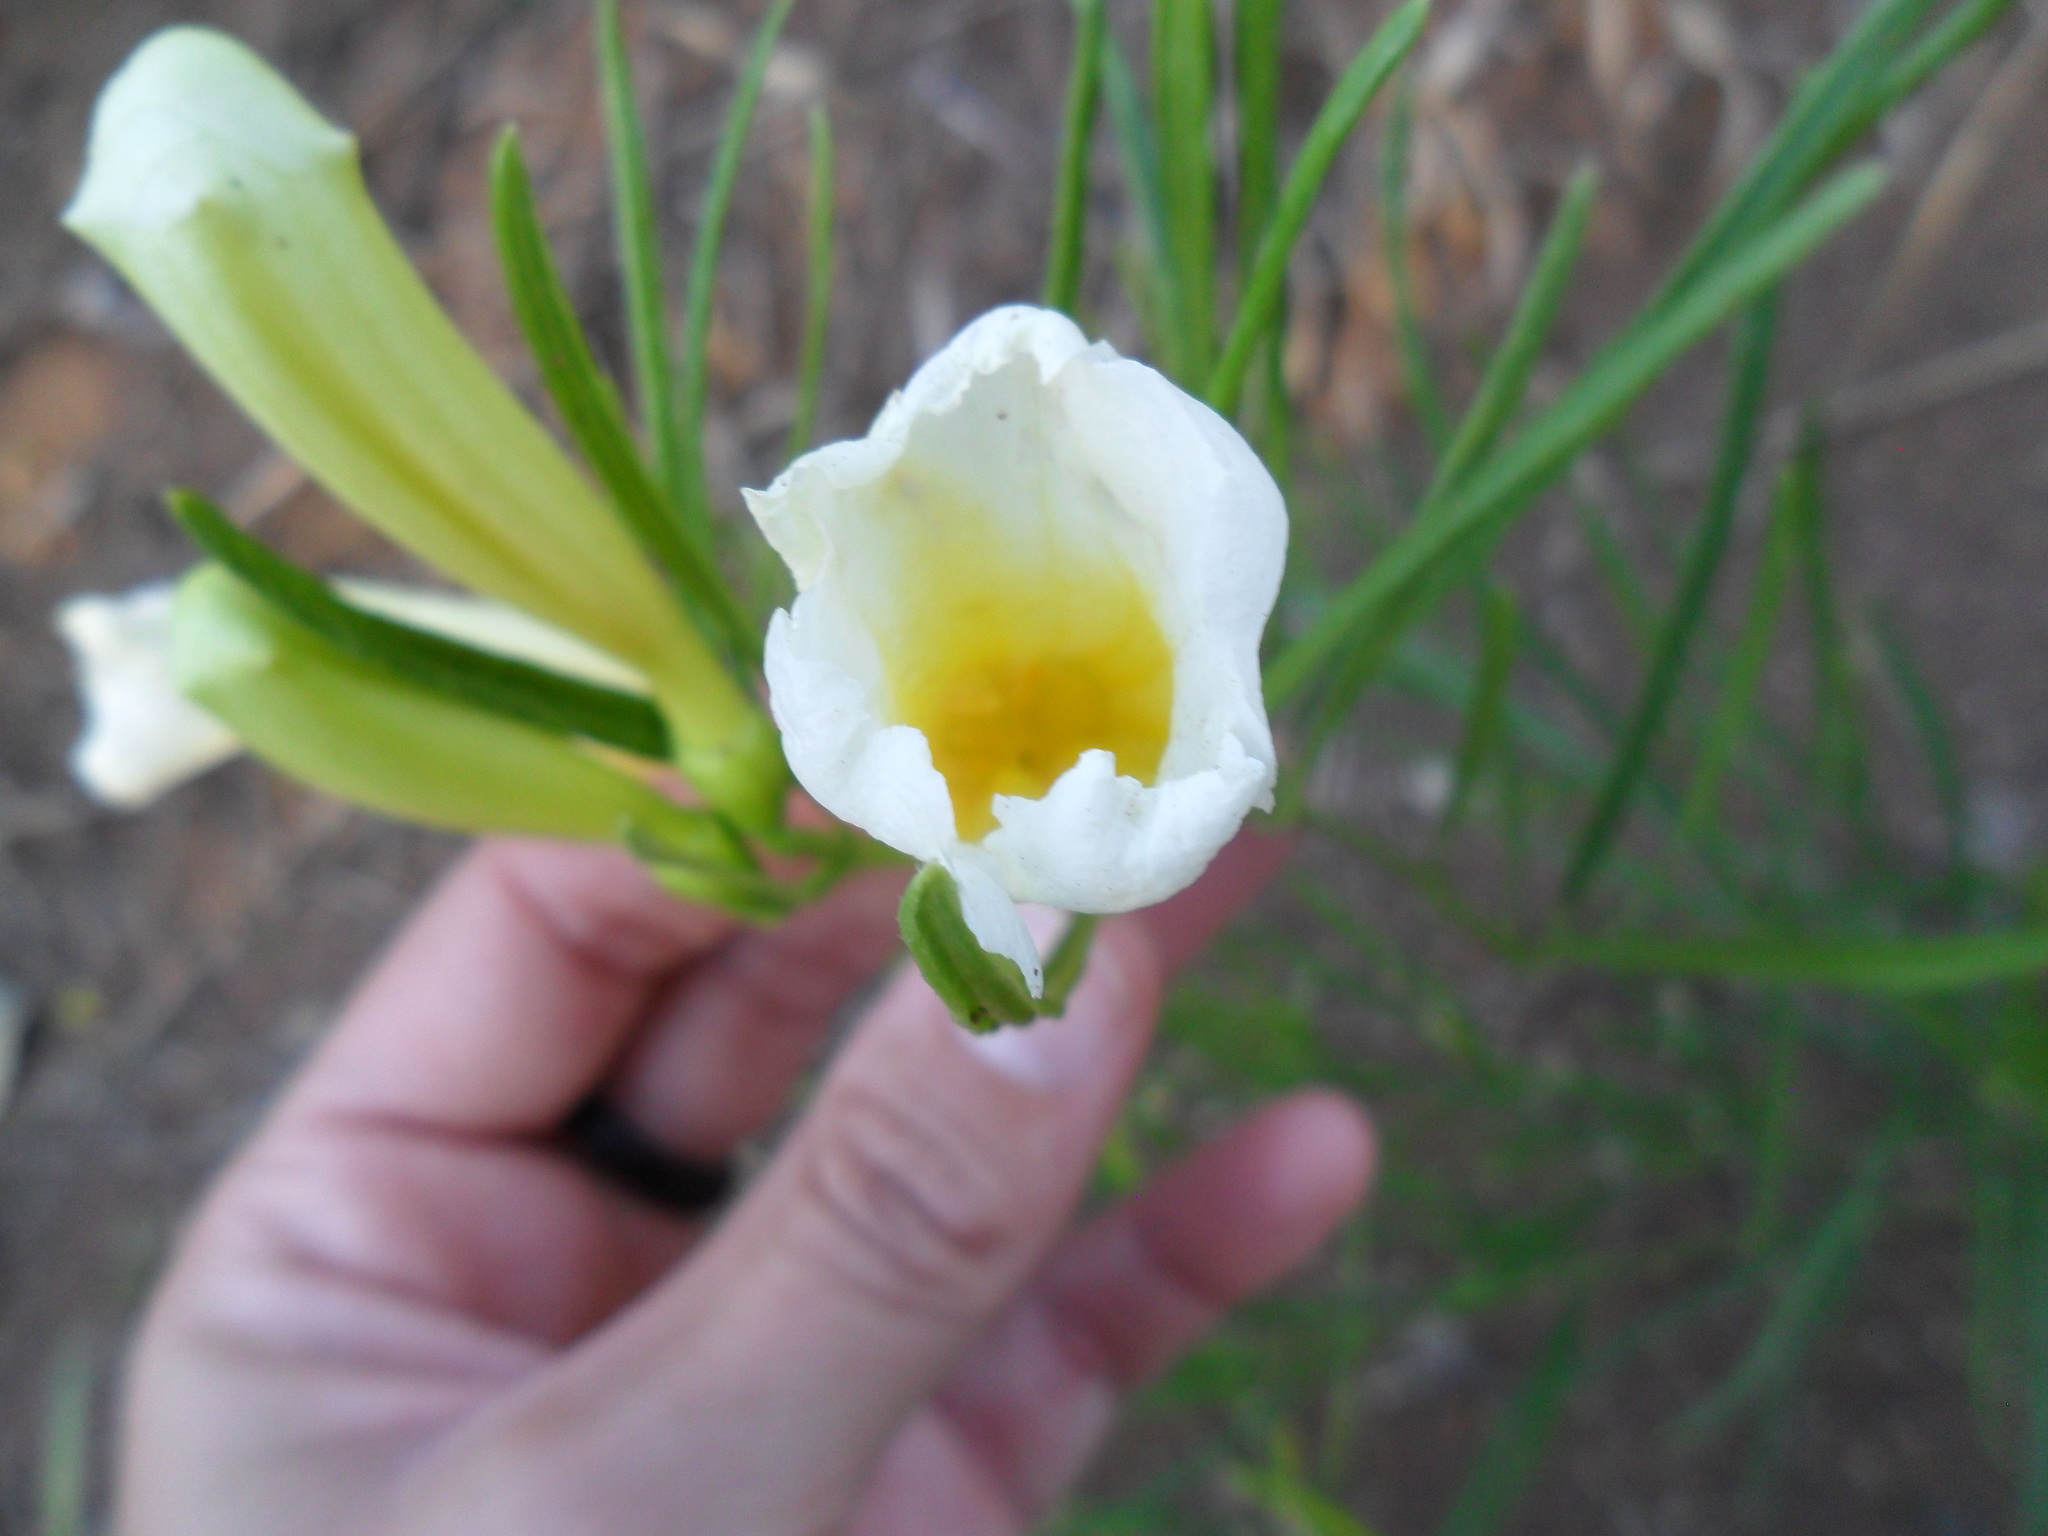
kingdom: Plantae
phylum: Tracheophyta
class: Magnoliopsida
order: Lamiales
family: Bignoniaceae
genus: Anemopaegma
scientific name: Anemopaegma arvense
